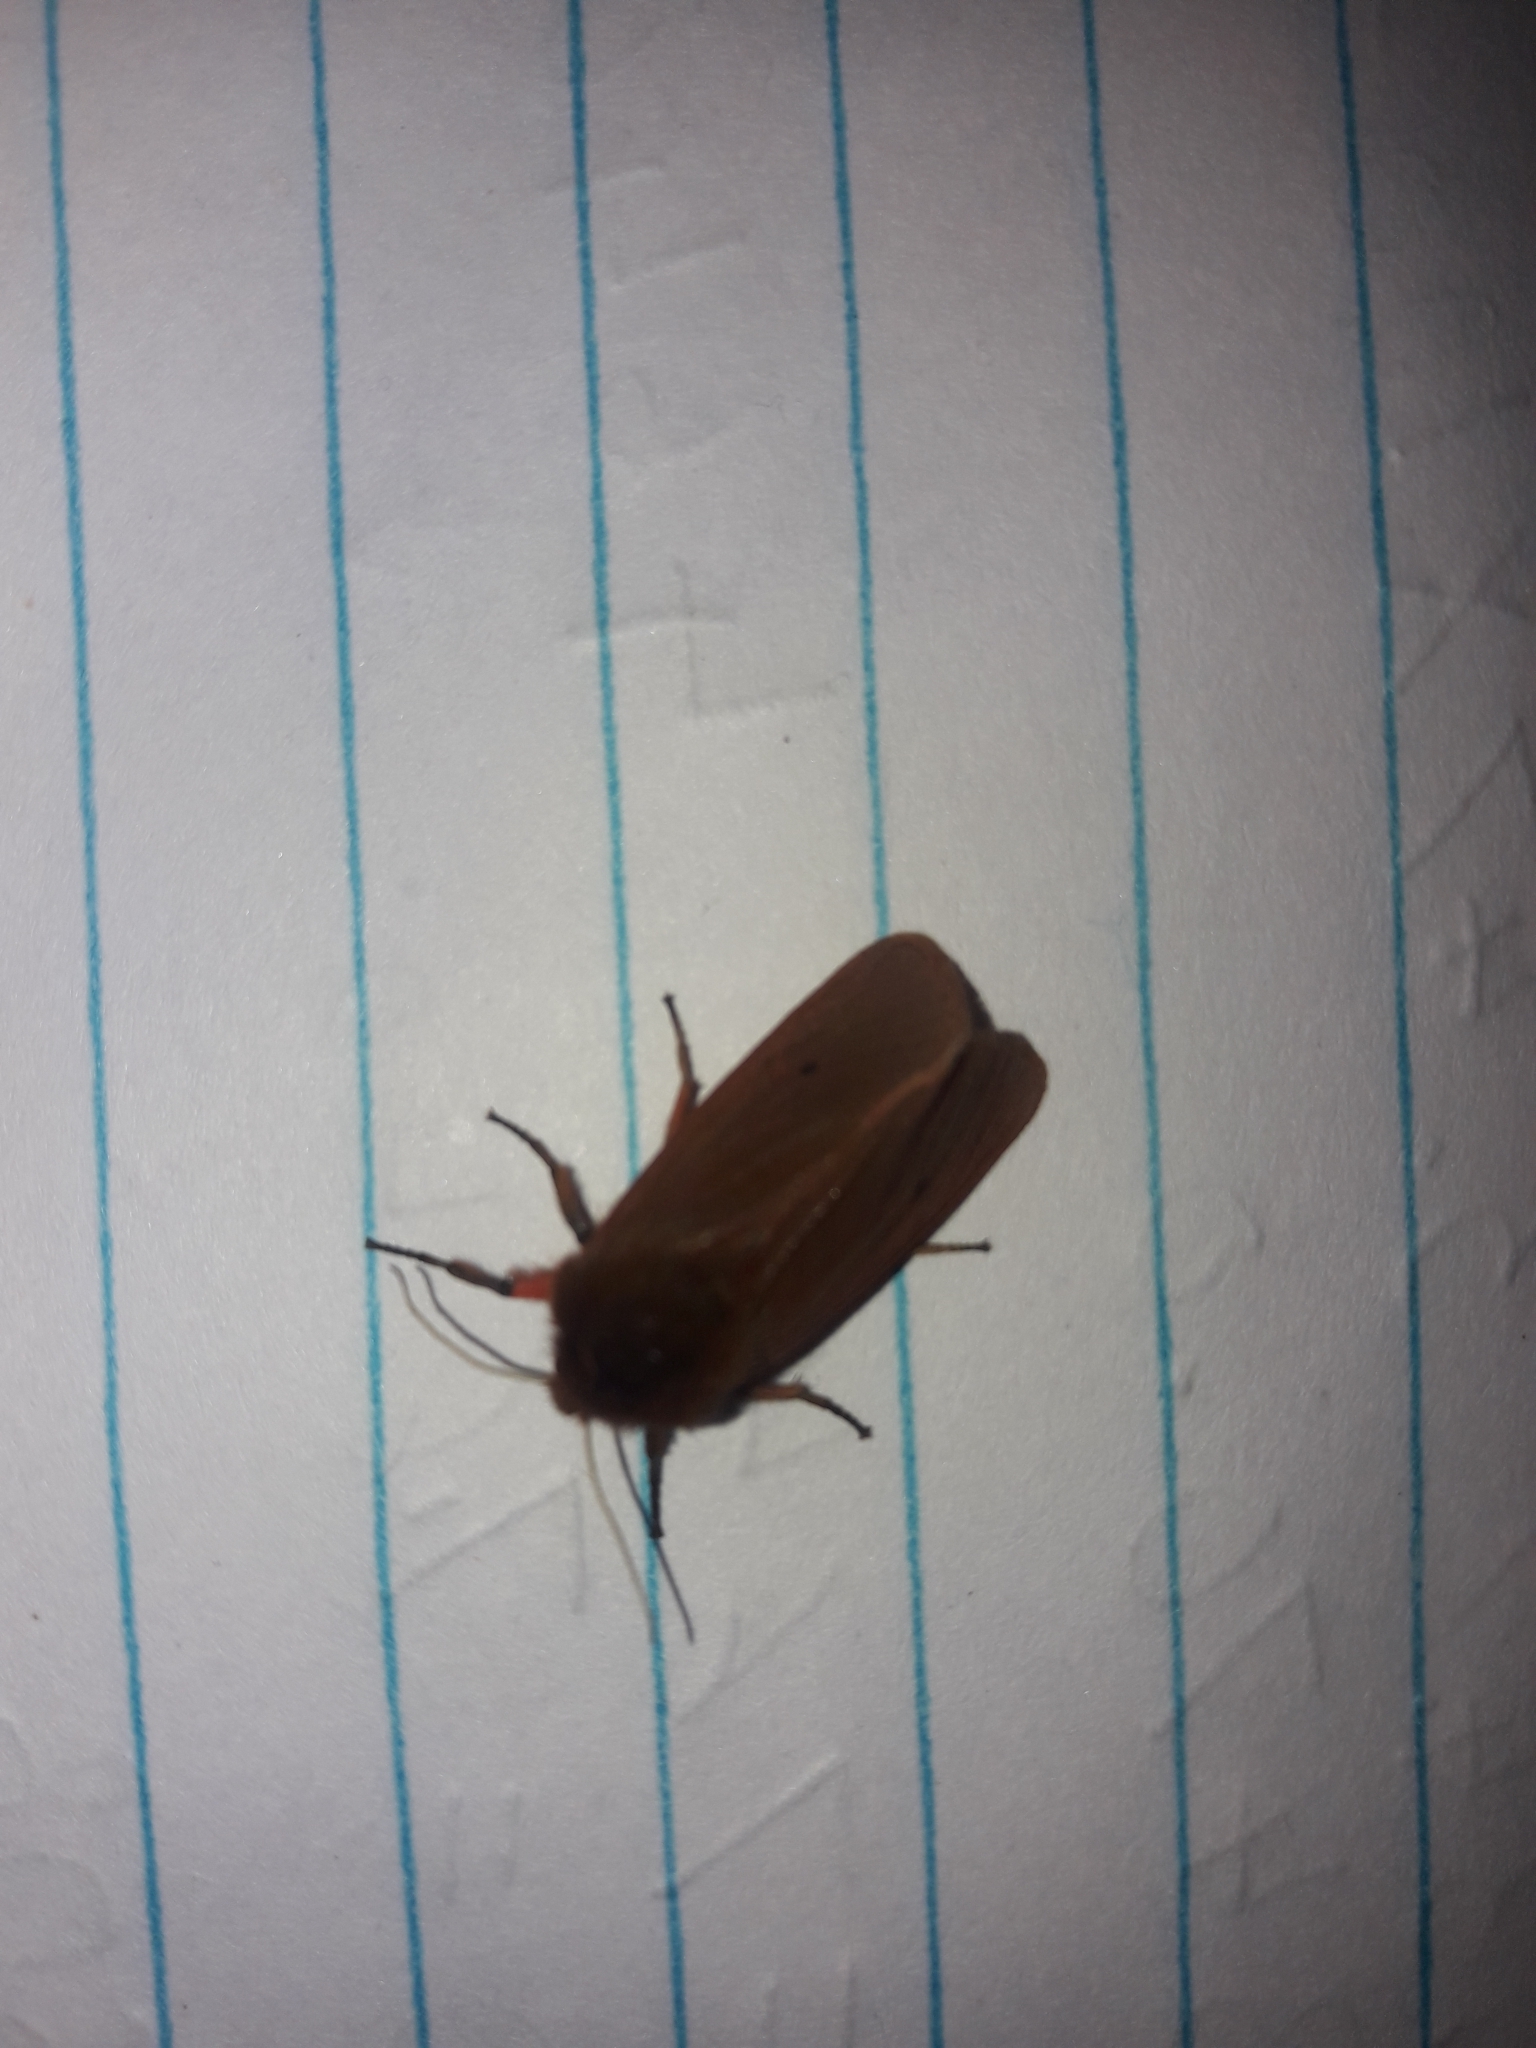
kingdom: Animalia
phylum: Arthropoda
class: Insecta
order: Lepidoptera
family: Erebidae
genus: Phragmatobia
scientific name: Phragmatobia fuliginosa
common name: Ruby tiger
